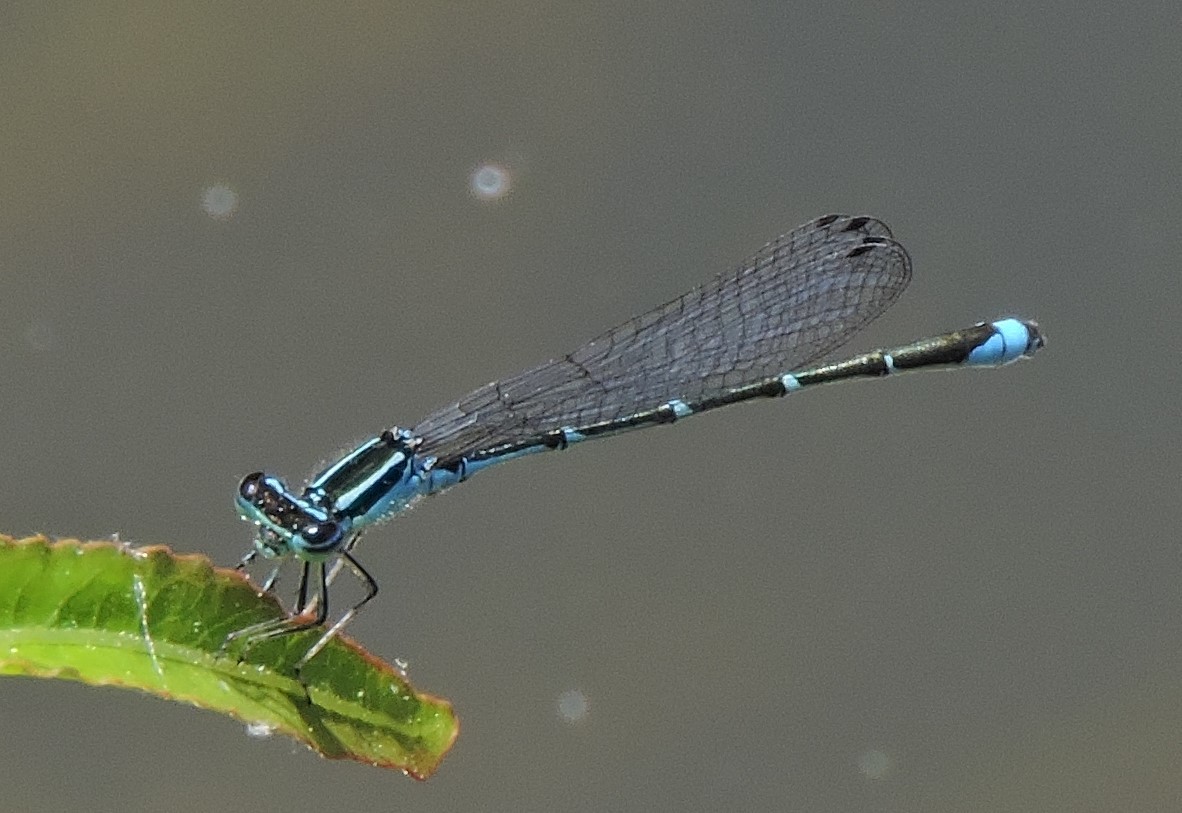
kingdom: Animalia
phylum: Arthropoda
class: Insecta
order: Odonata
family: Coenagrionidae
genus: Enallagma
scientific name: Enallagma exsulans
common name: Stream bluet
